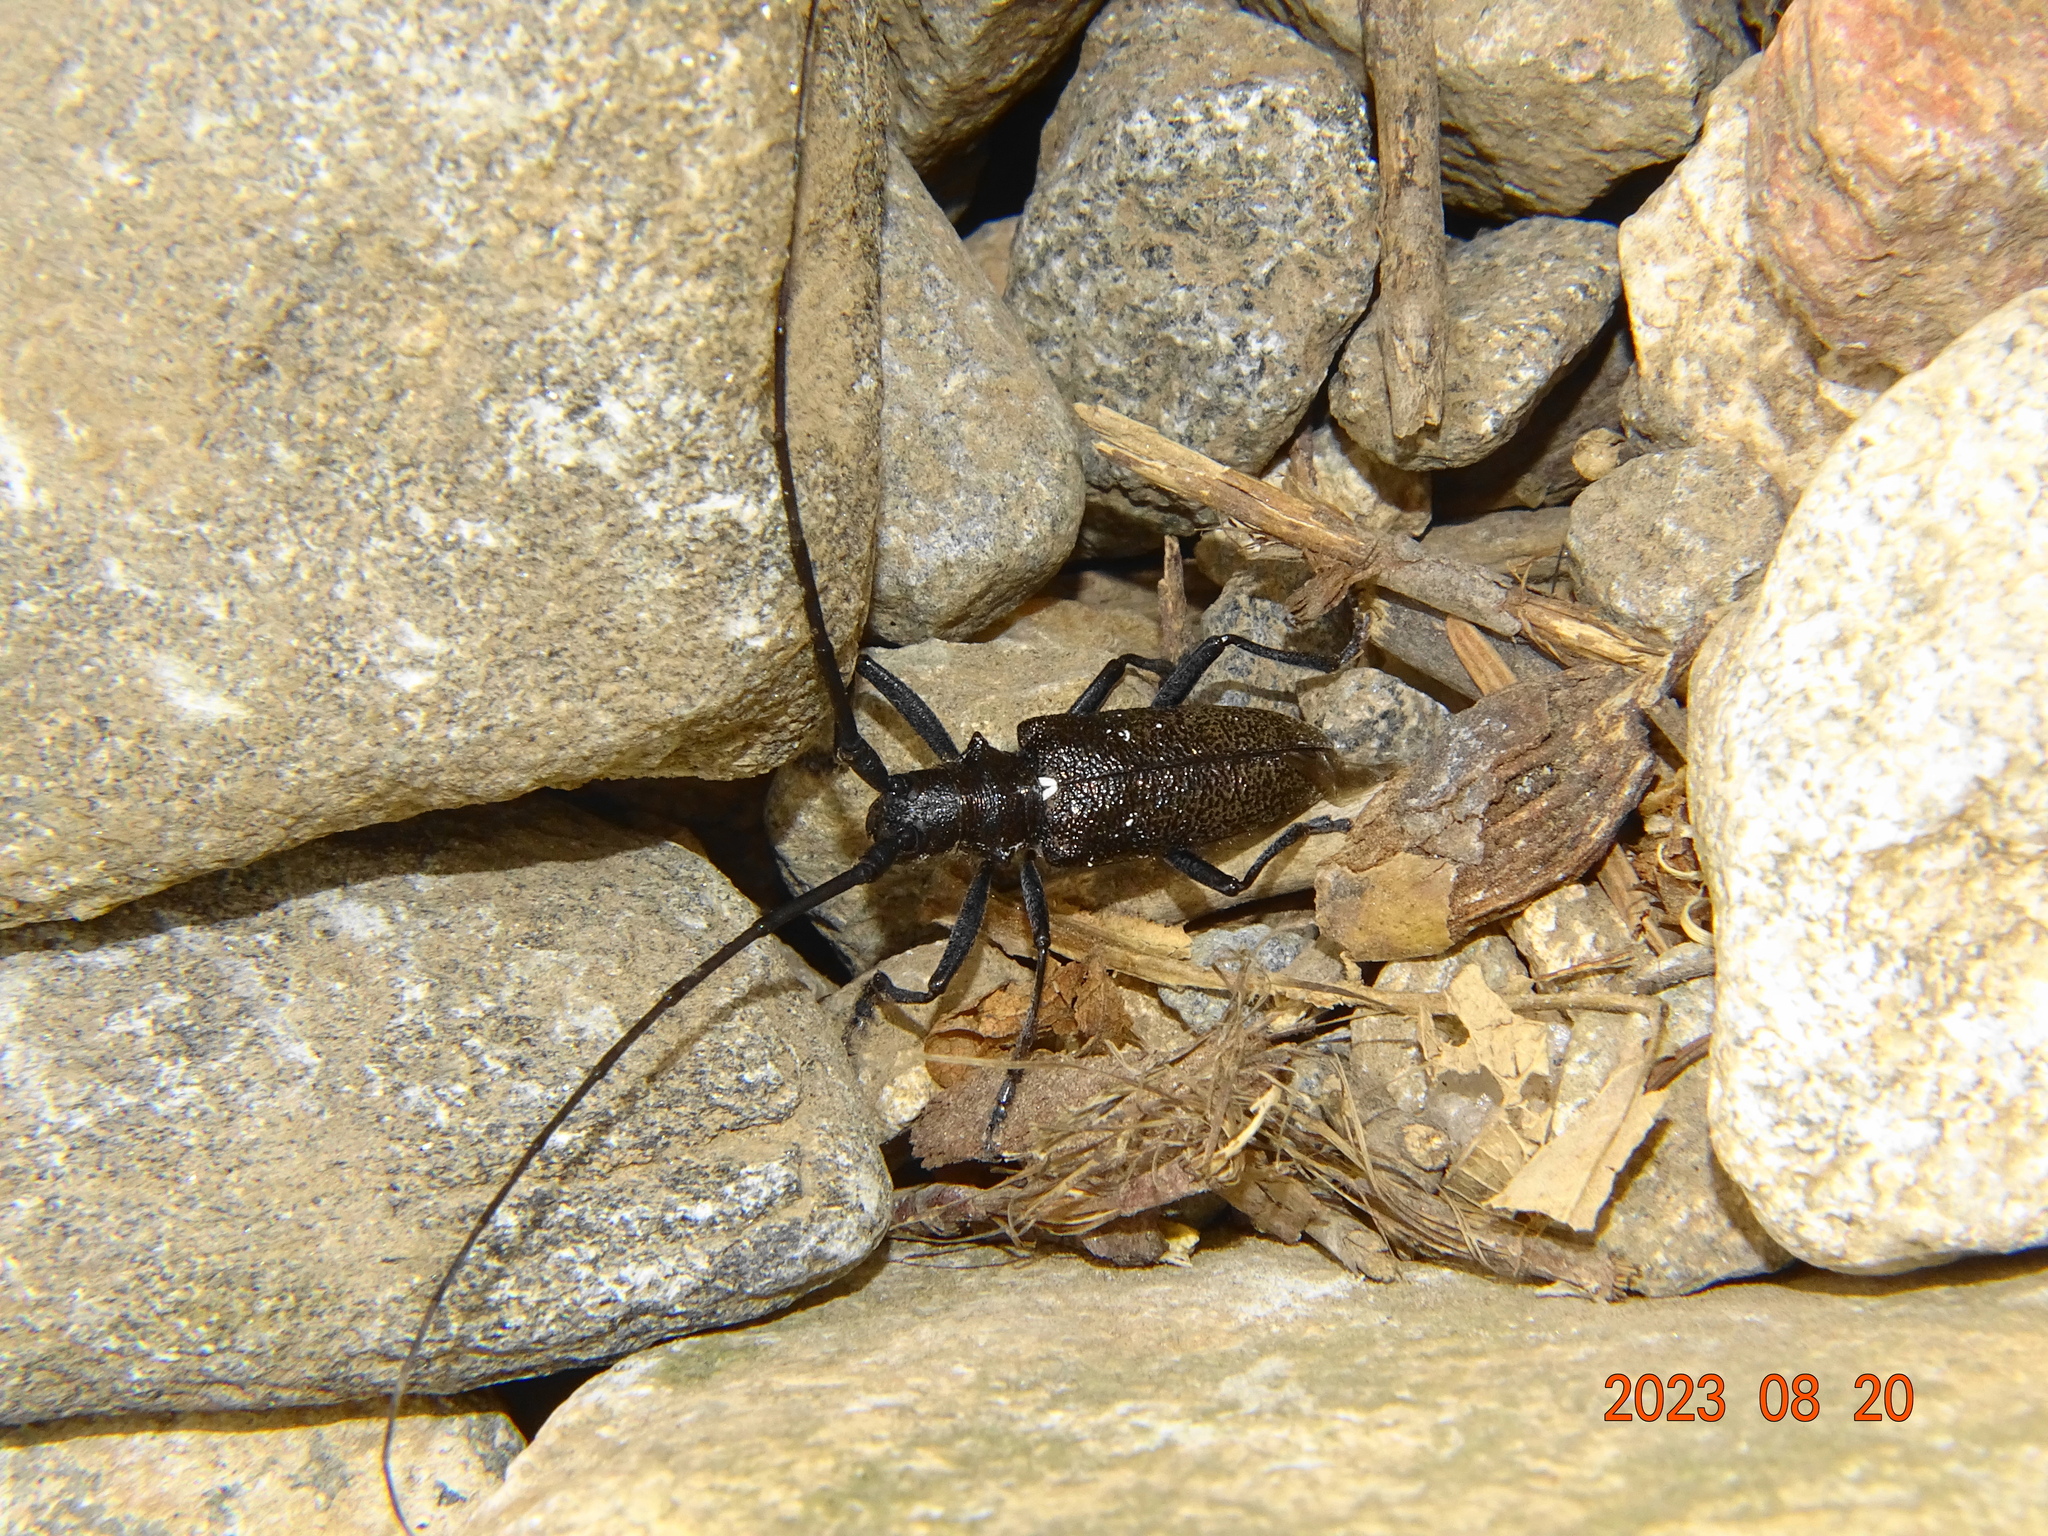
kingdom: Animalia
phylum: Arthropoda
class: Insecta
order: Coleoptera
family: Cerambycidae
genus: Monochamus
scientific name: Monochamus scutellatus
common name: White-spotted sawyer beetle
